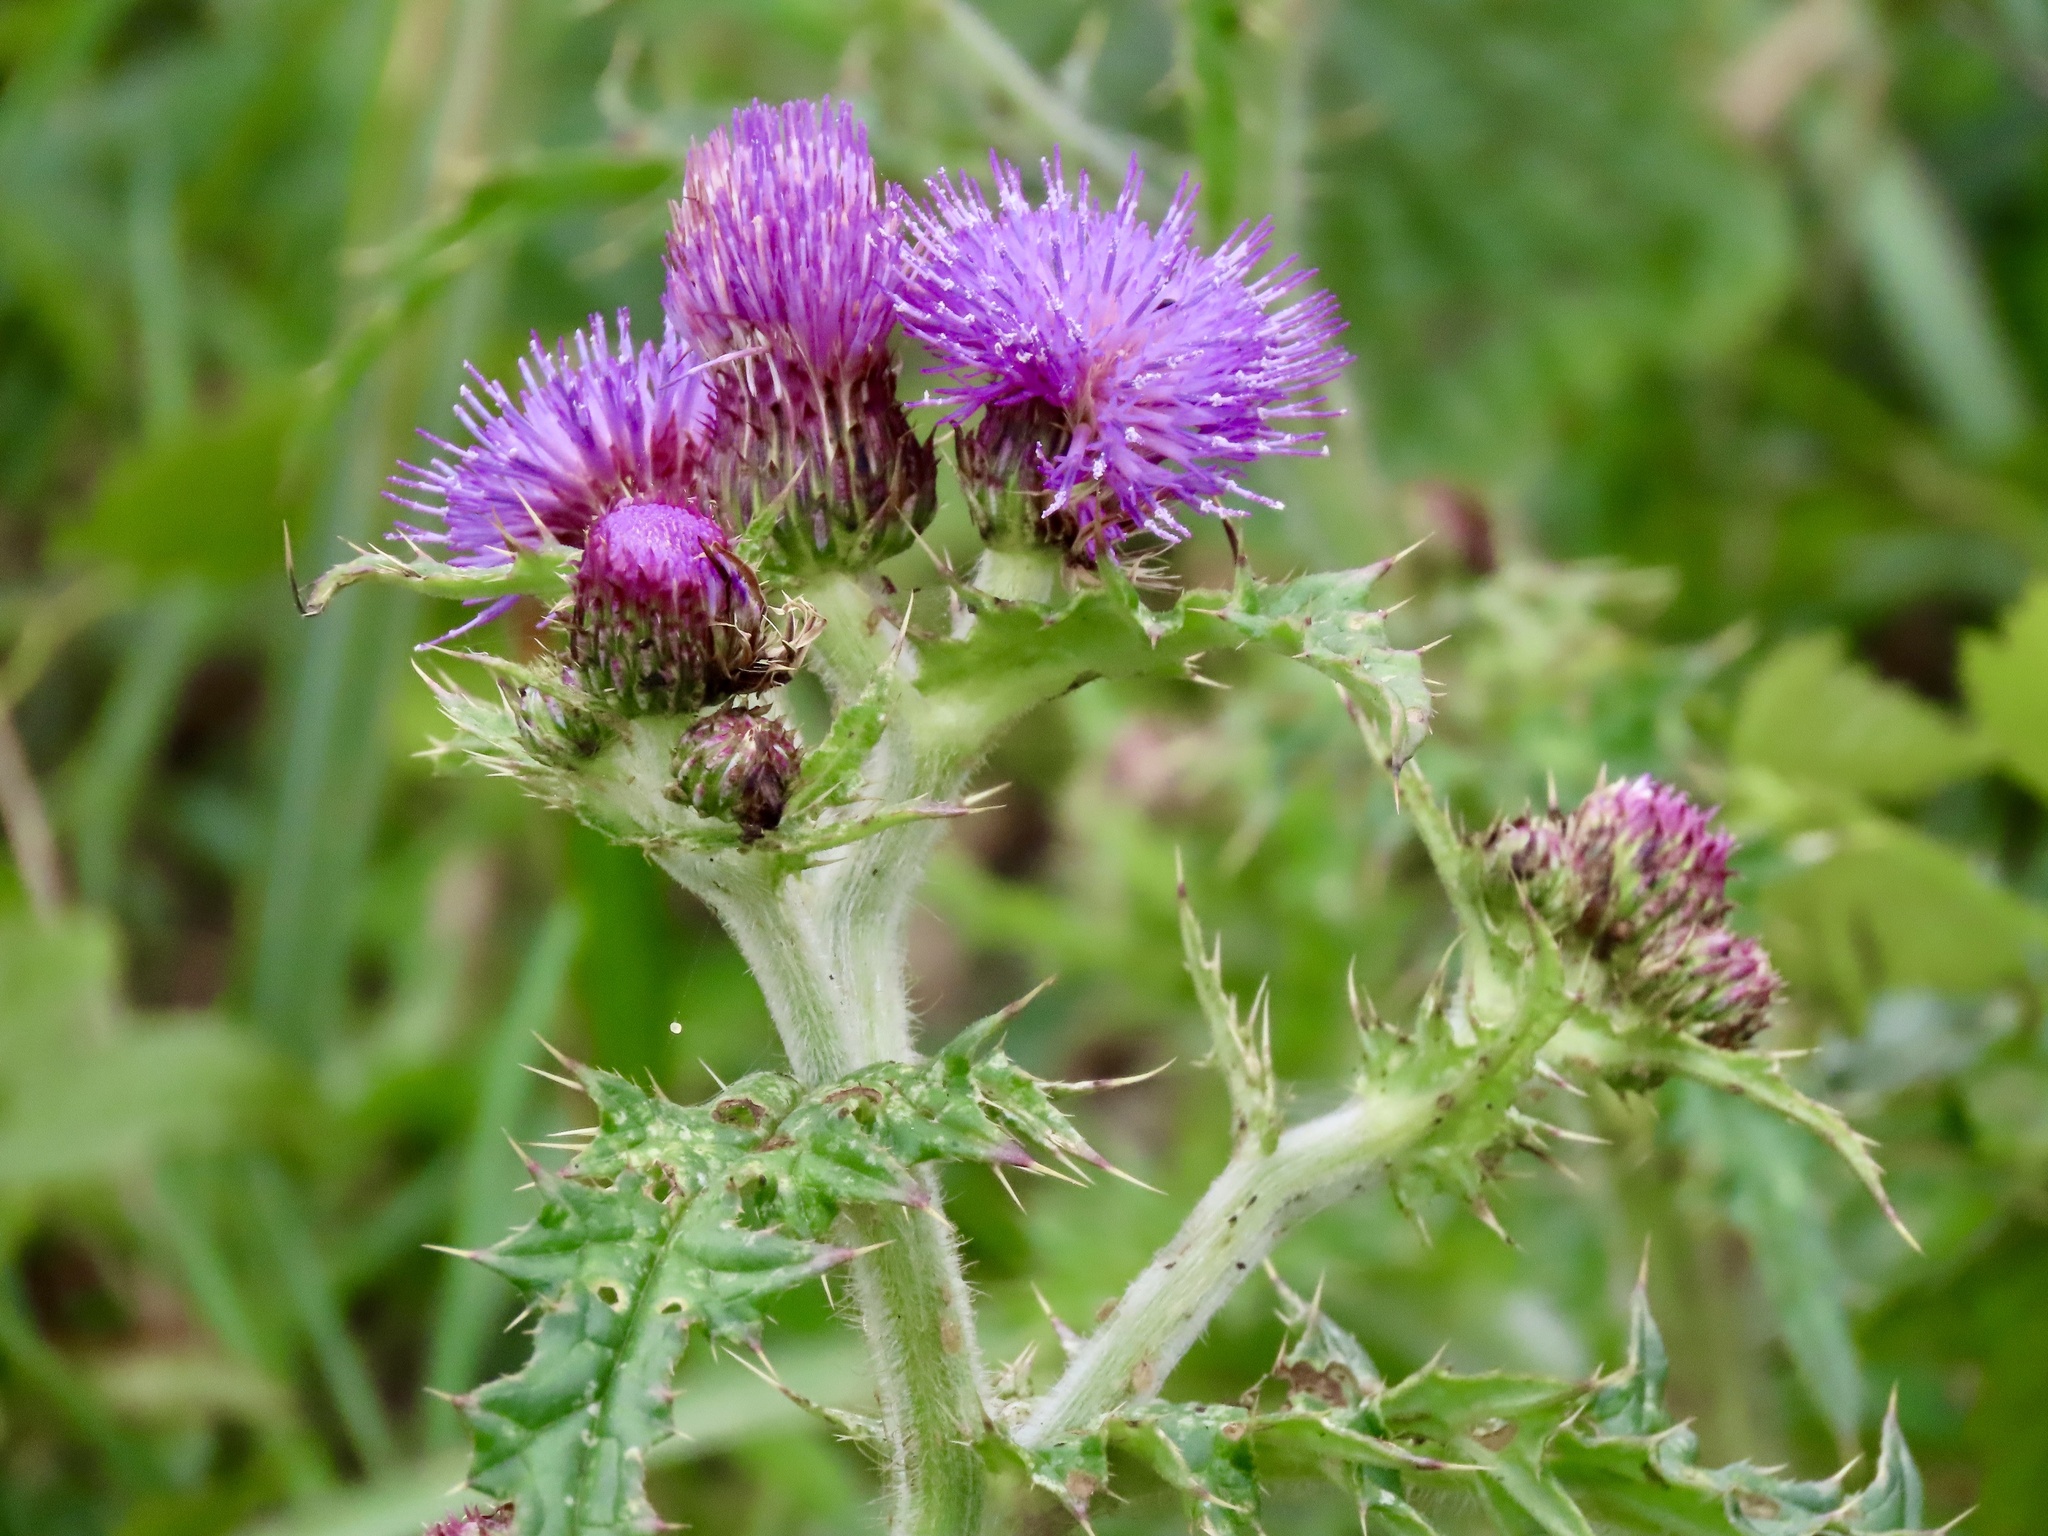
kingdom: Plantae
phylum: Tracheophyta
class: Magnoliopsida
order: Asterales
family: Asteraceae
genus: Cirsium
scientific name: Cirsium japonicum
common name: Japanese thistle
